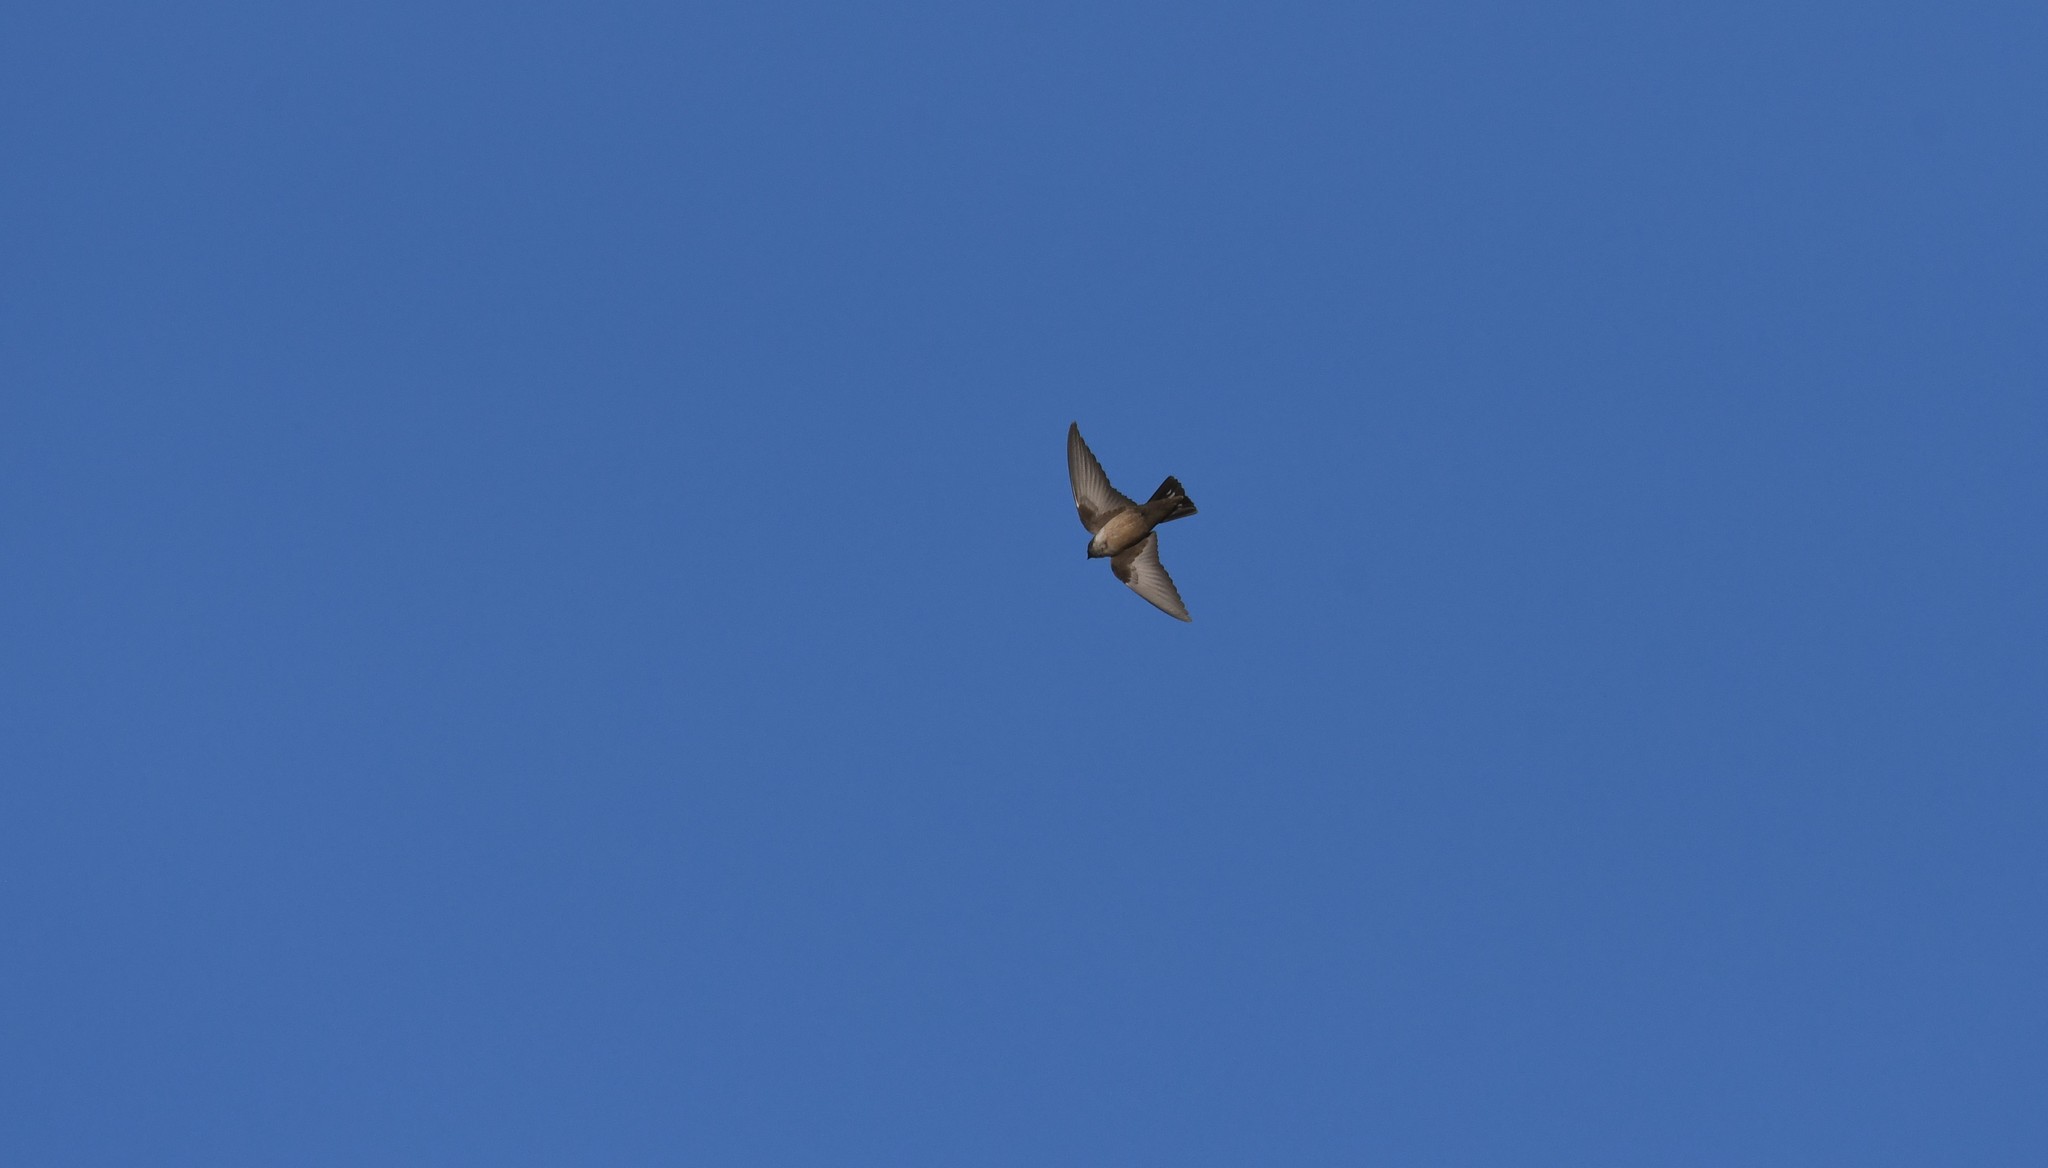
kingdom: Animalia
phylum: Chordata
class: Aves
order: Passeriformes
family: Hirundinidae
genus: Ptyonoprogne
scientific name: Ptyonoprogne rupestris
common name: Eurasian crag martin
